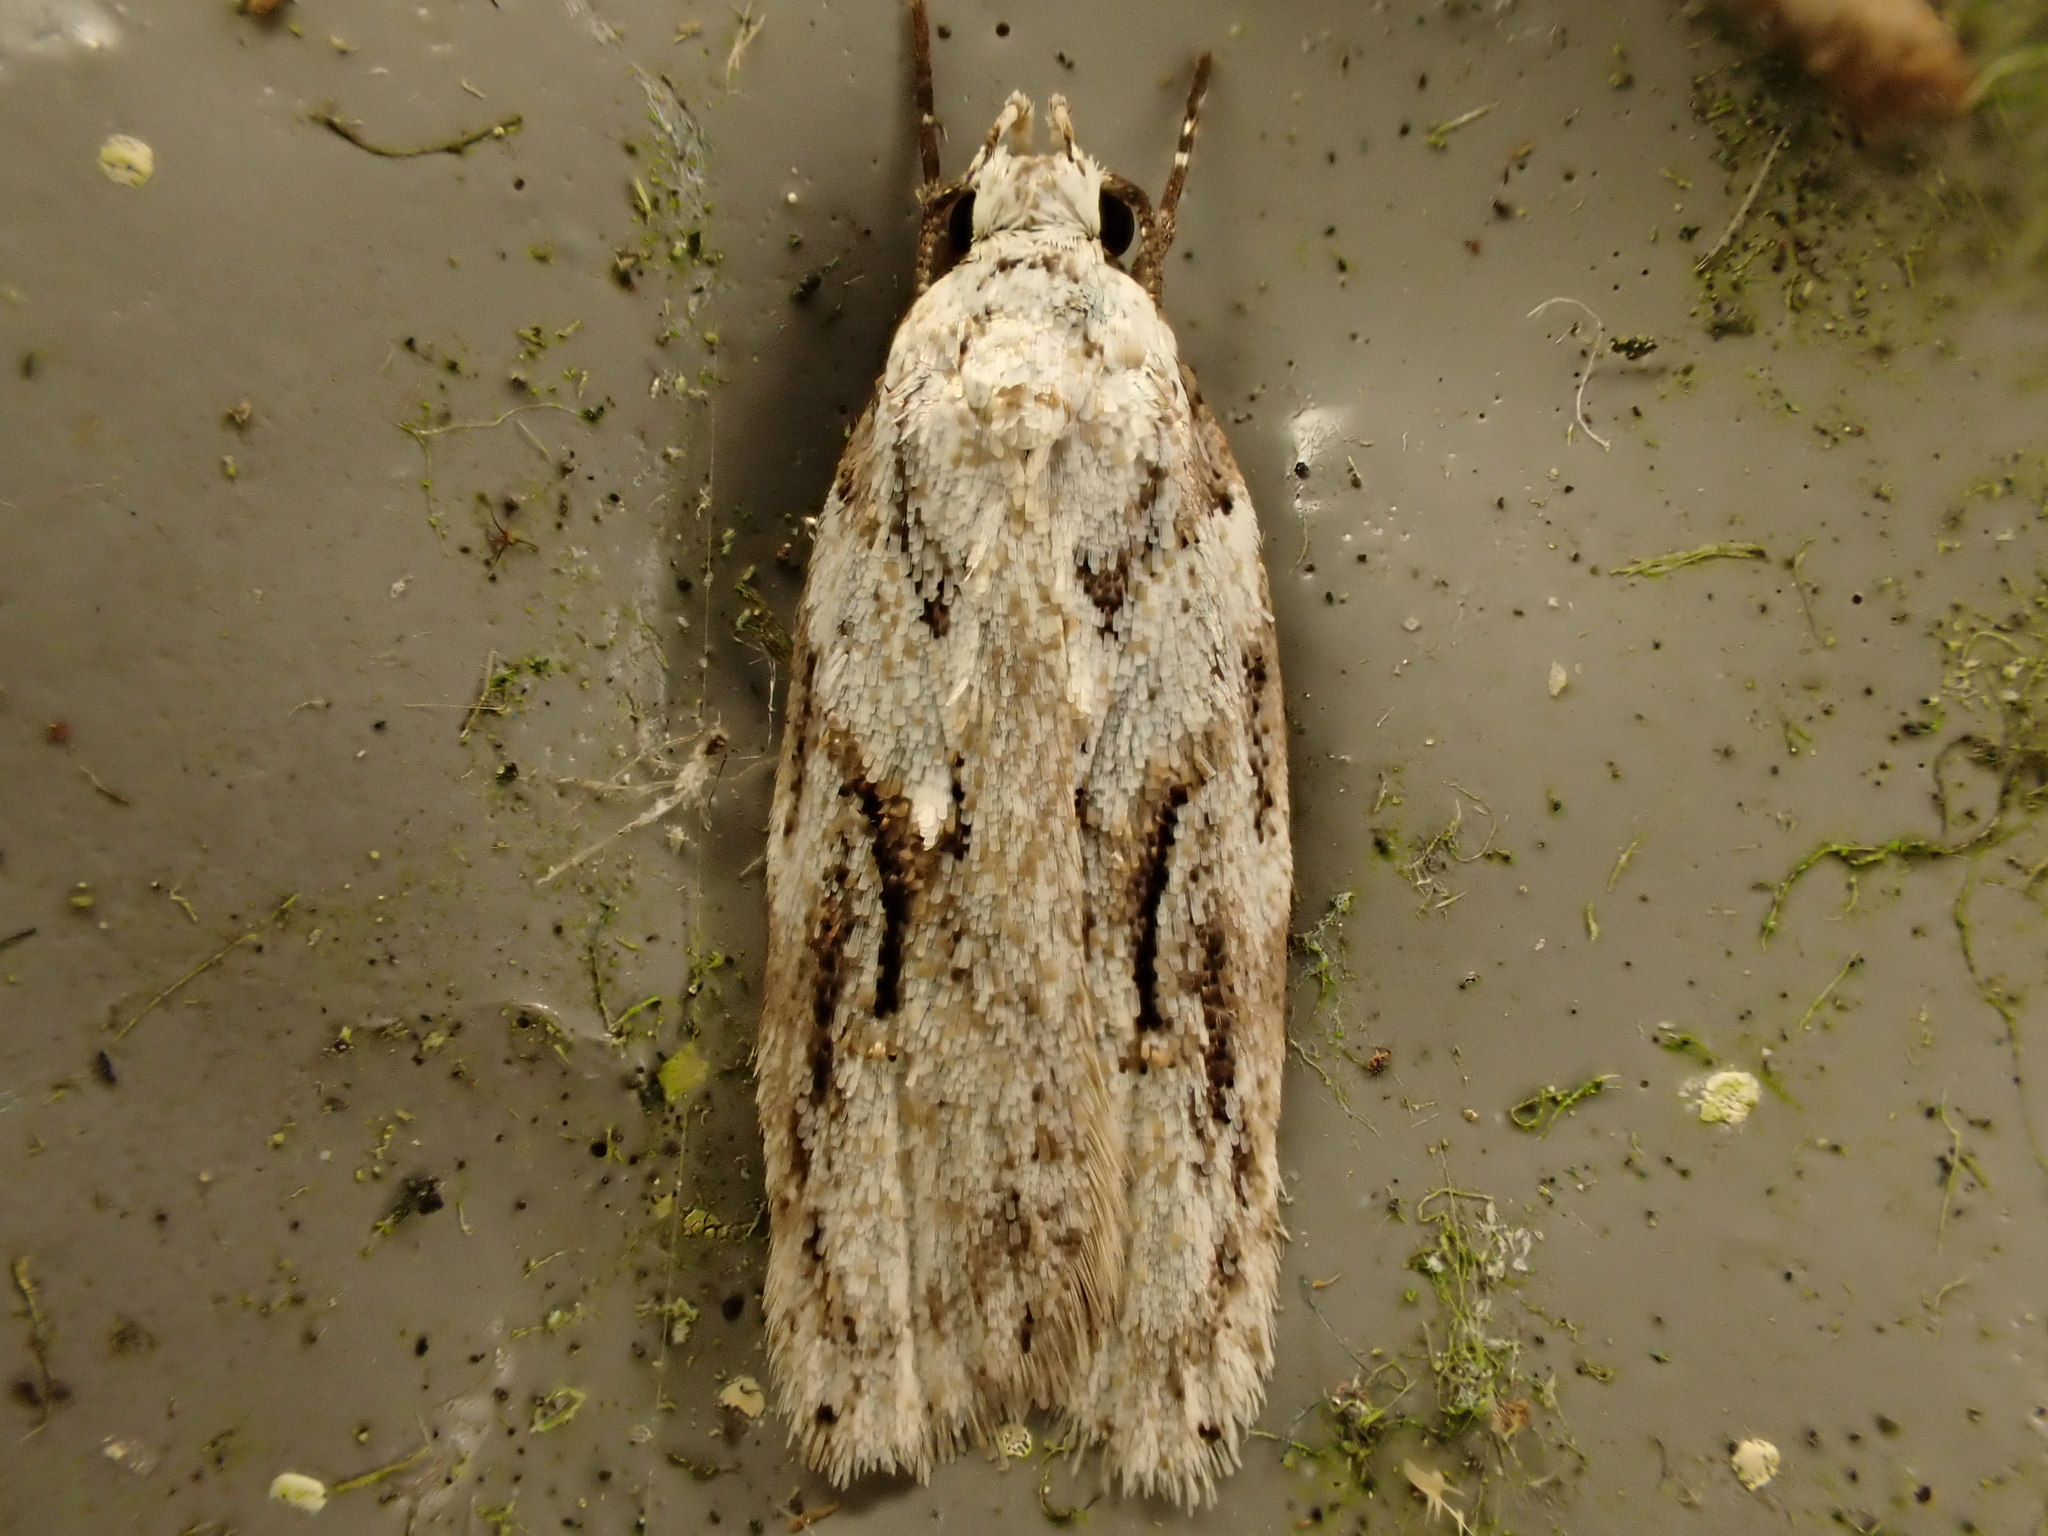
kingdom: Animalia
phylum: Arthropoda
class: Insecta
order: Lepidoptera
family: Oecophoridae
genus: Izatha
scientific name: Izatha mesoschista
